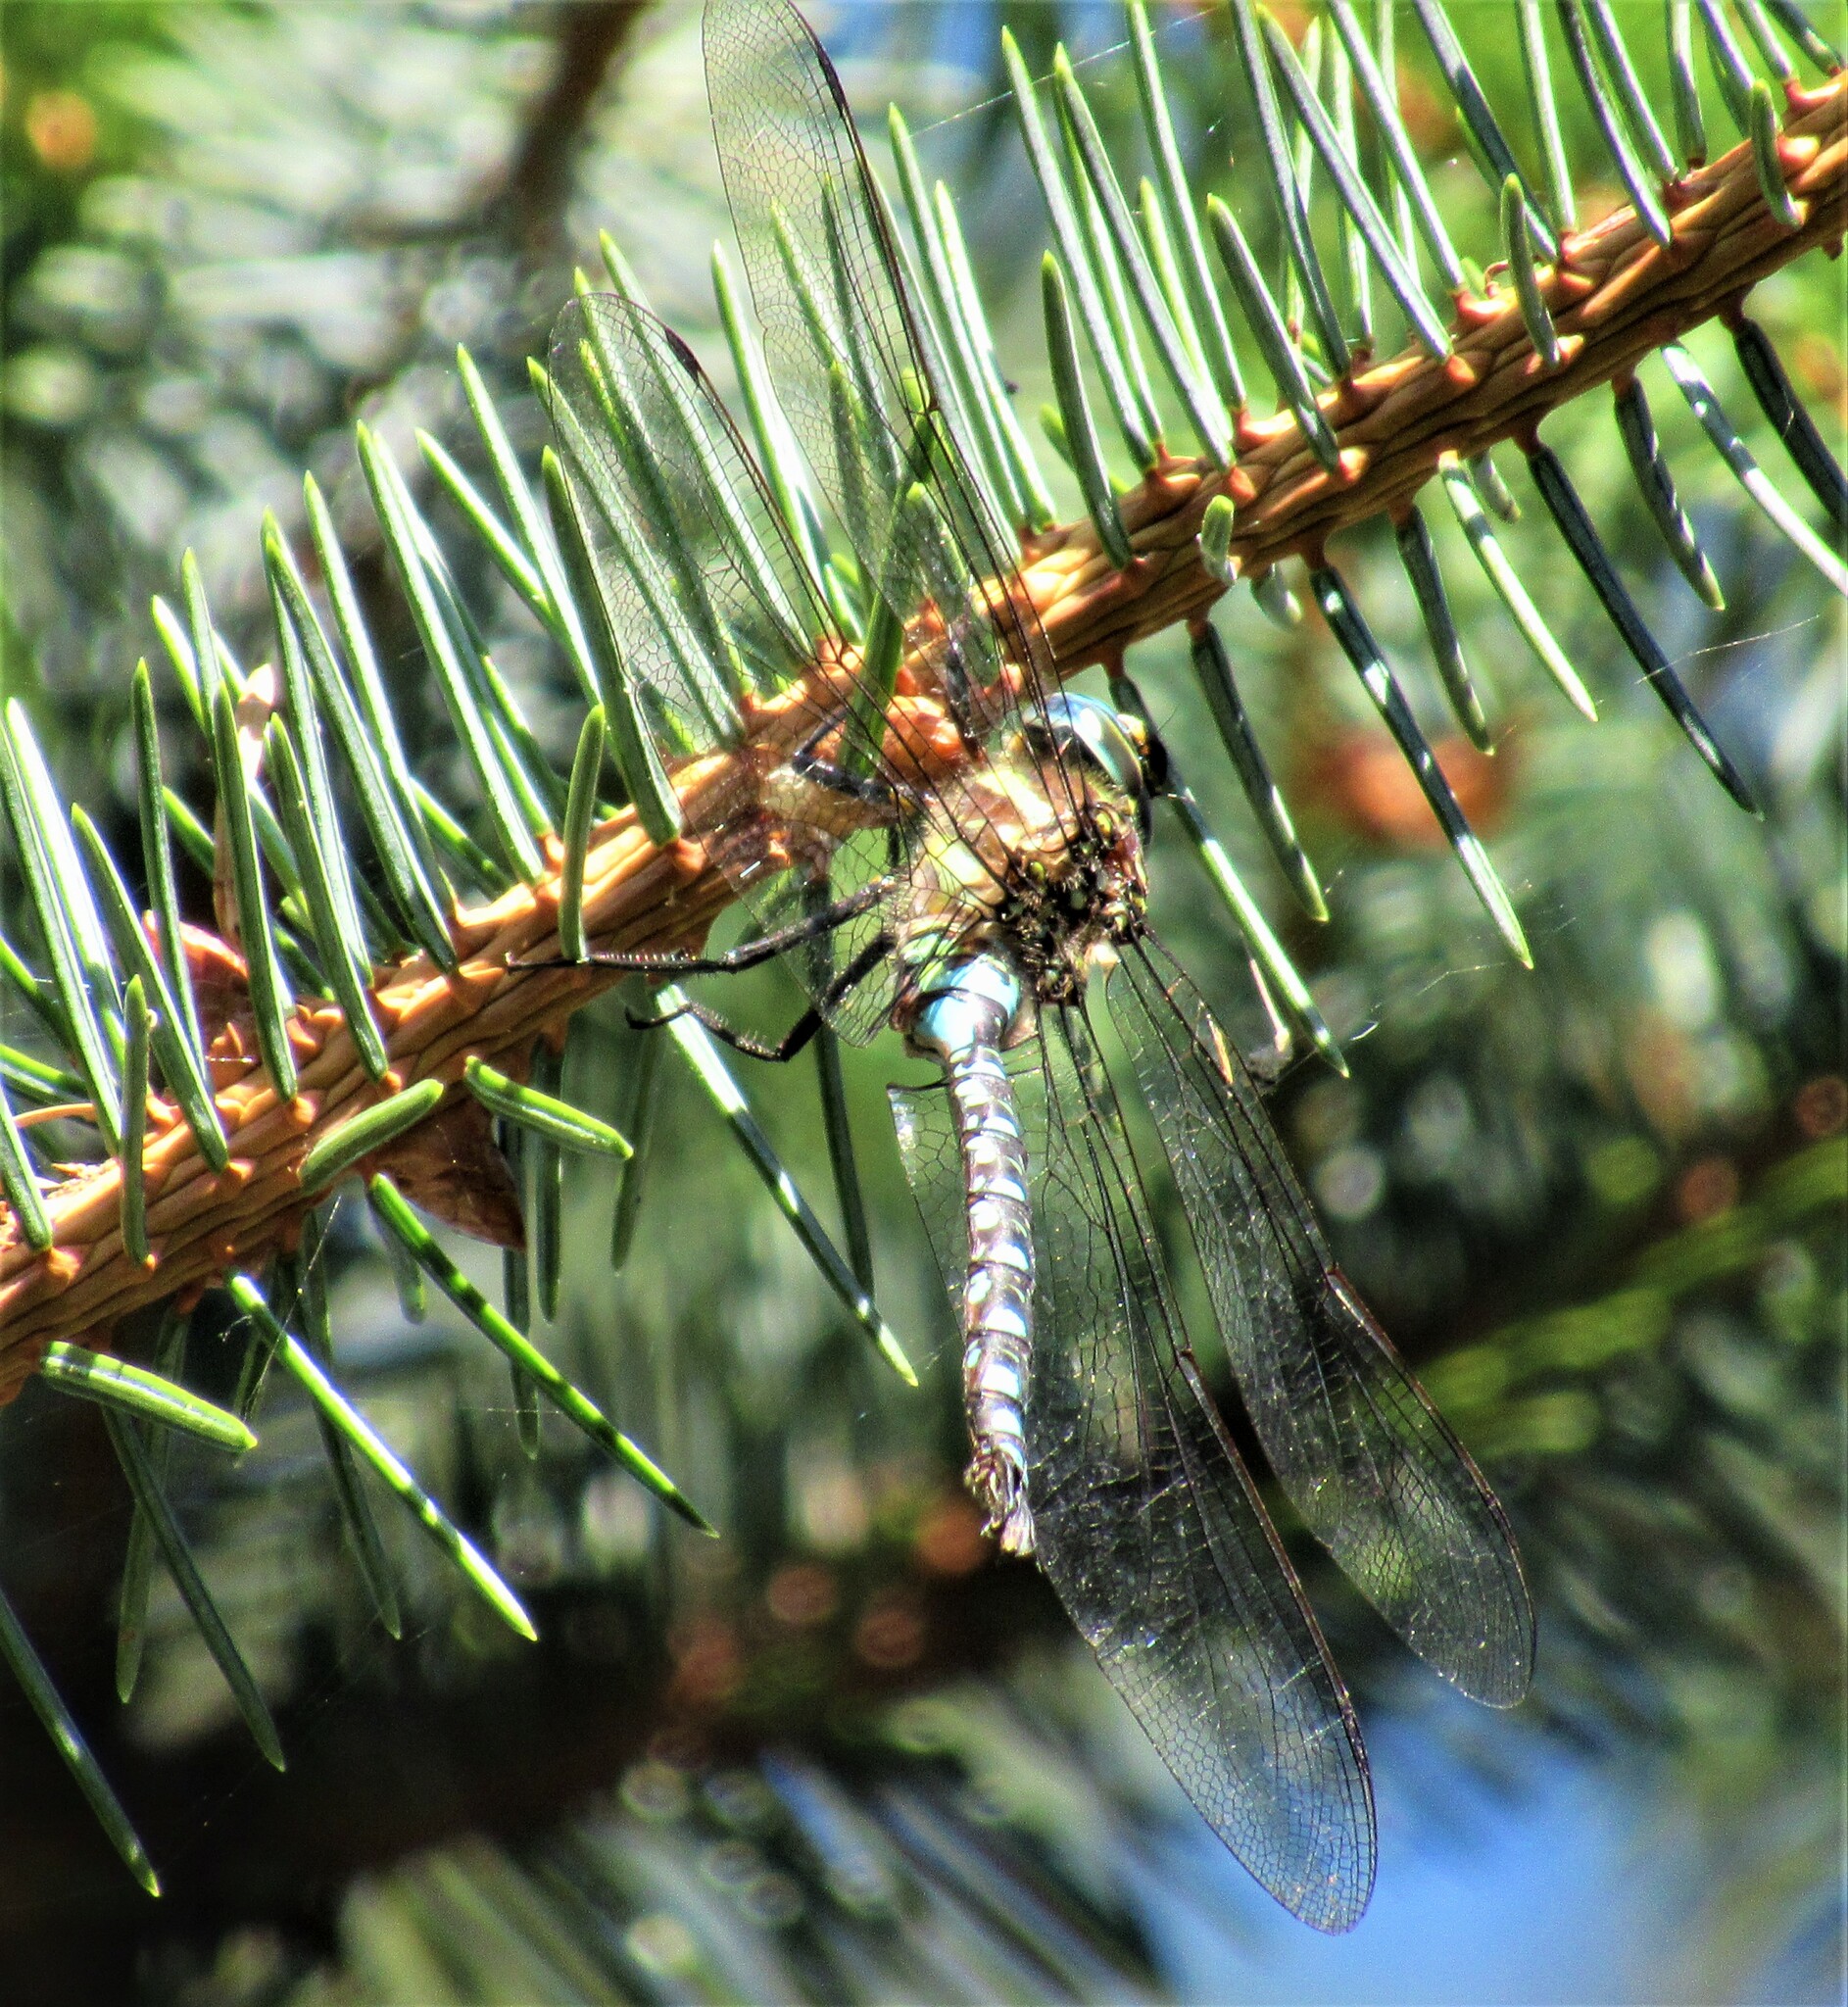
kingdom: Animalia
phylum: Arthropoda
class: Insecta
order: Odonata
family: Aeshnidae
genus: Aeshna
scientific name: Aeshna palmata
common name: Paddle-tailed darner
